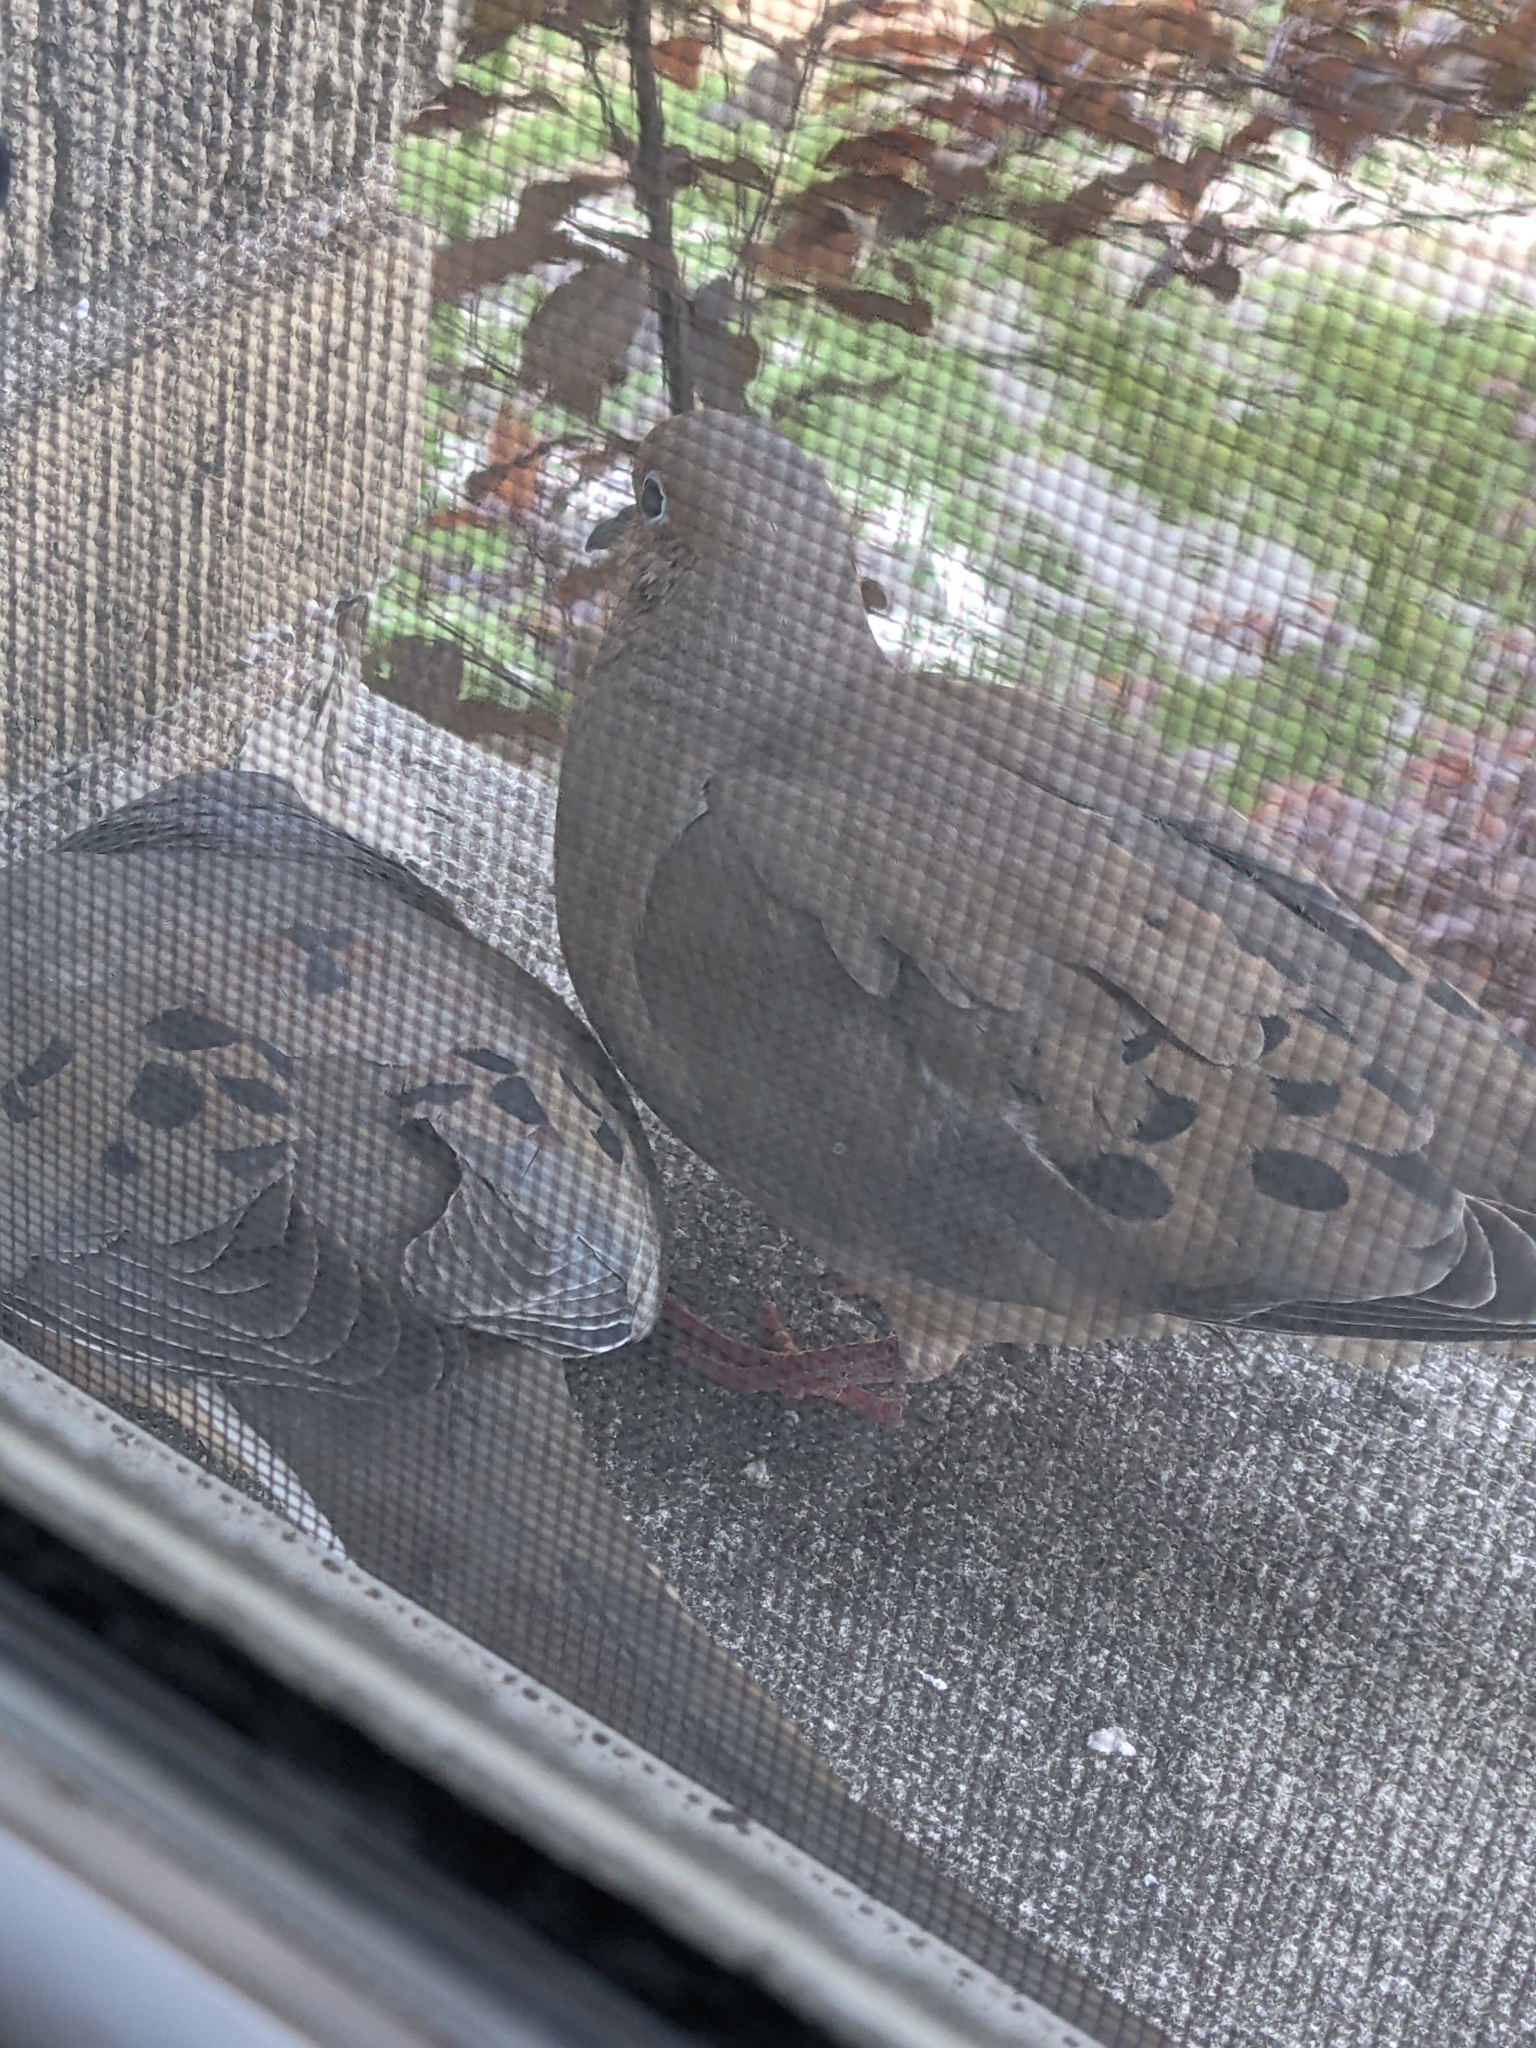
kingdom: Animalia
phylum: Chordata
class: Aves
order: Columbiformes
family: Columbidae
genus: Zenaida
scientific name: Zenaida macroura
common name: Mourning dove
